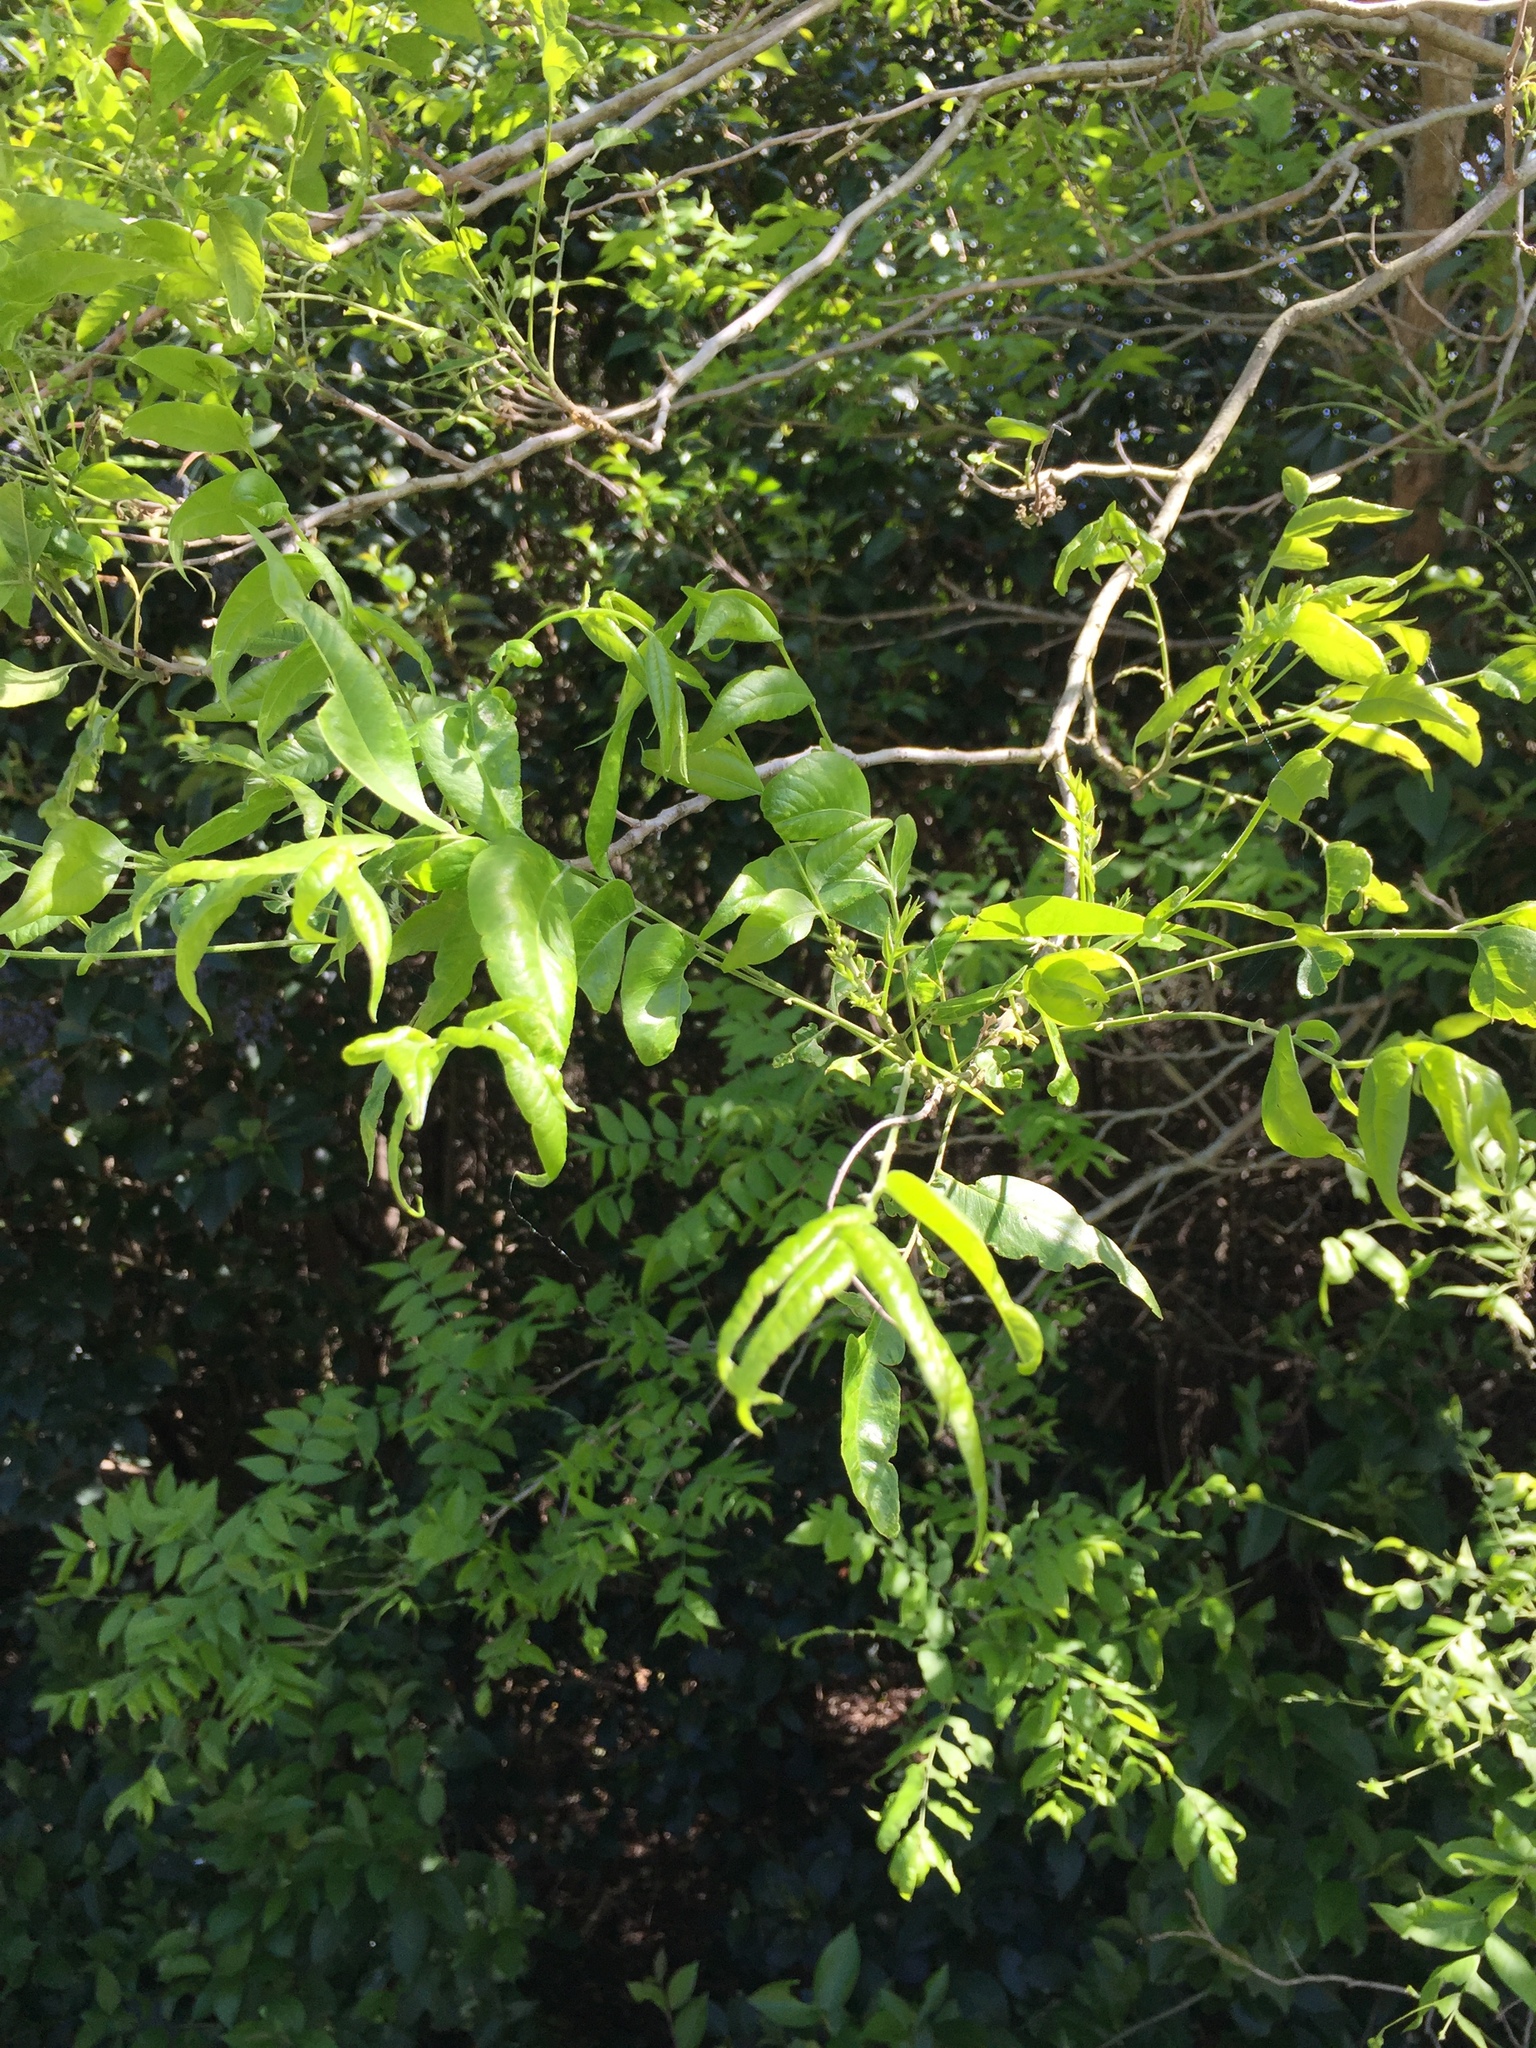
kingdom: Plantae
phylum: Tracheophyta
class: Magnoliopsida
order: Sapindales
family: Sapindaceae
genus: Sapindus
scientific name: Sapindus drummondii
